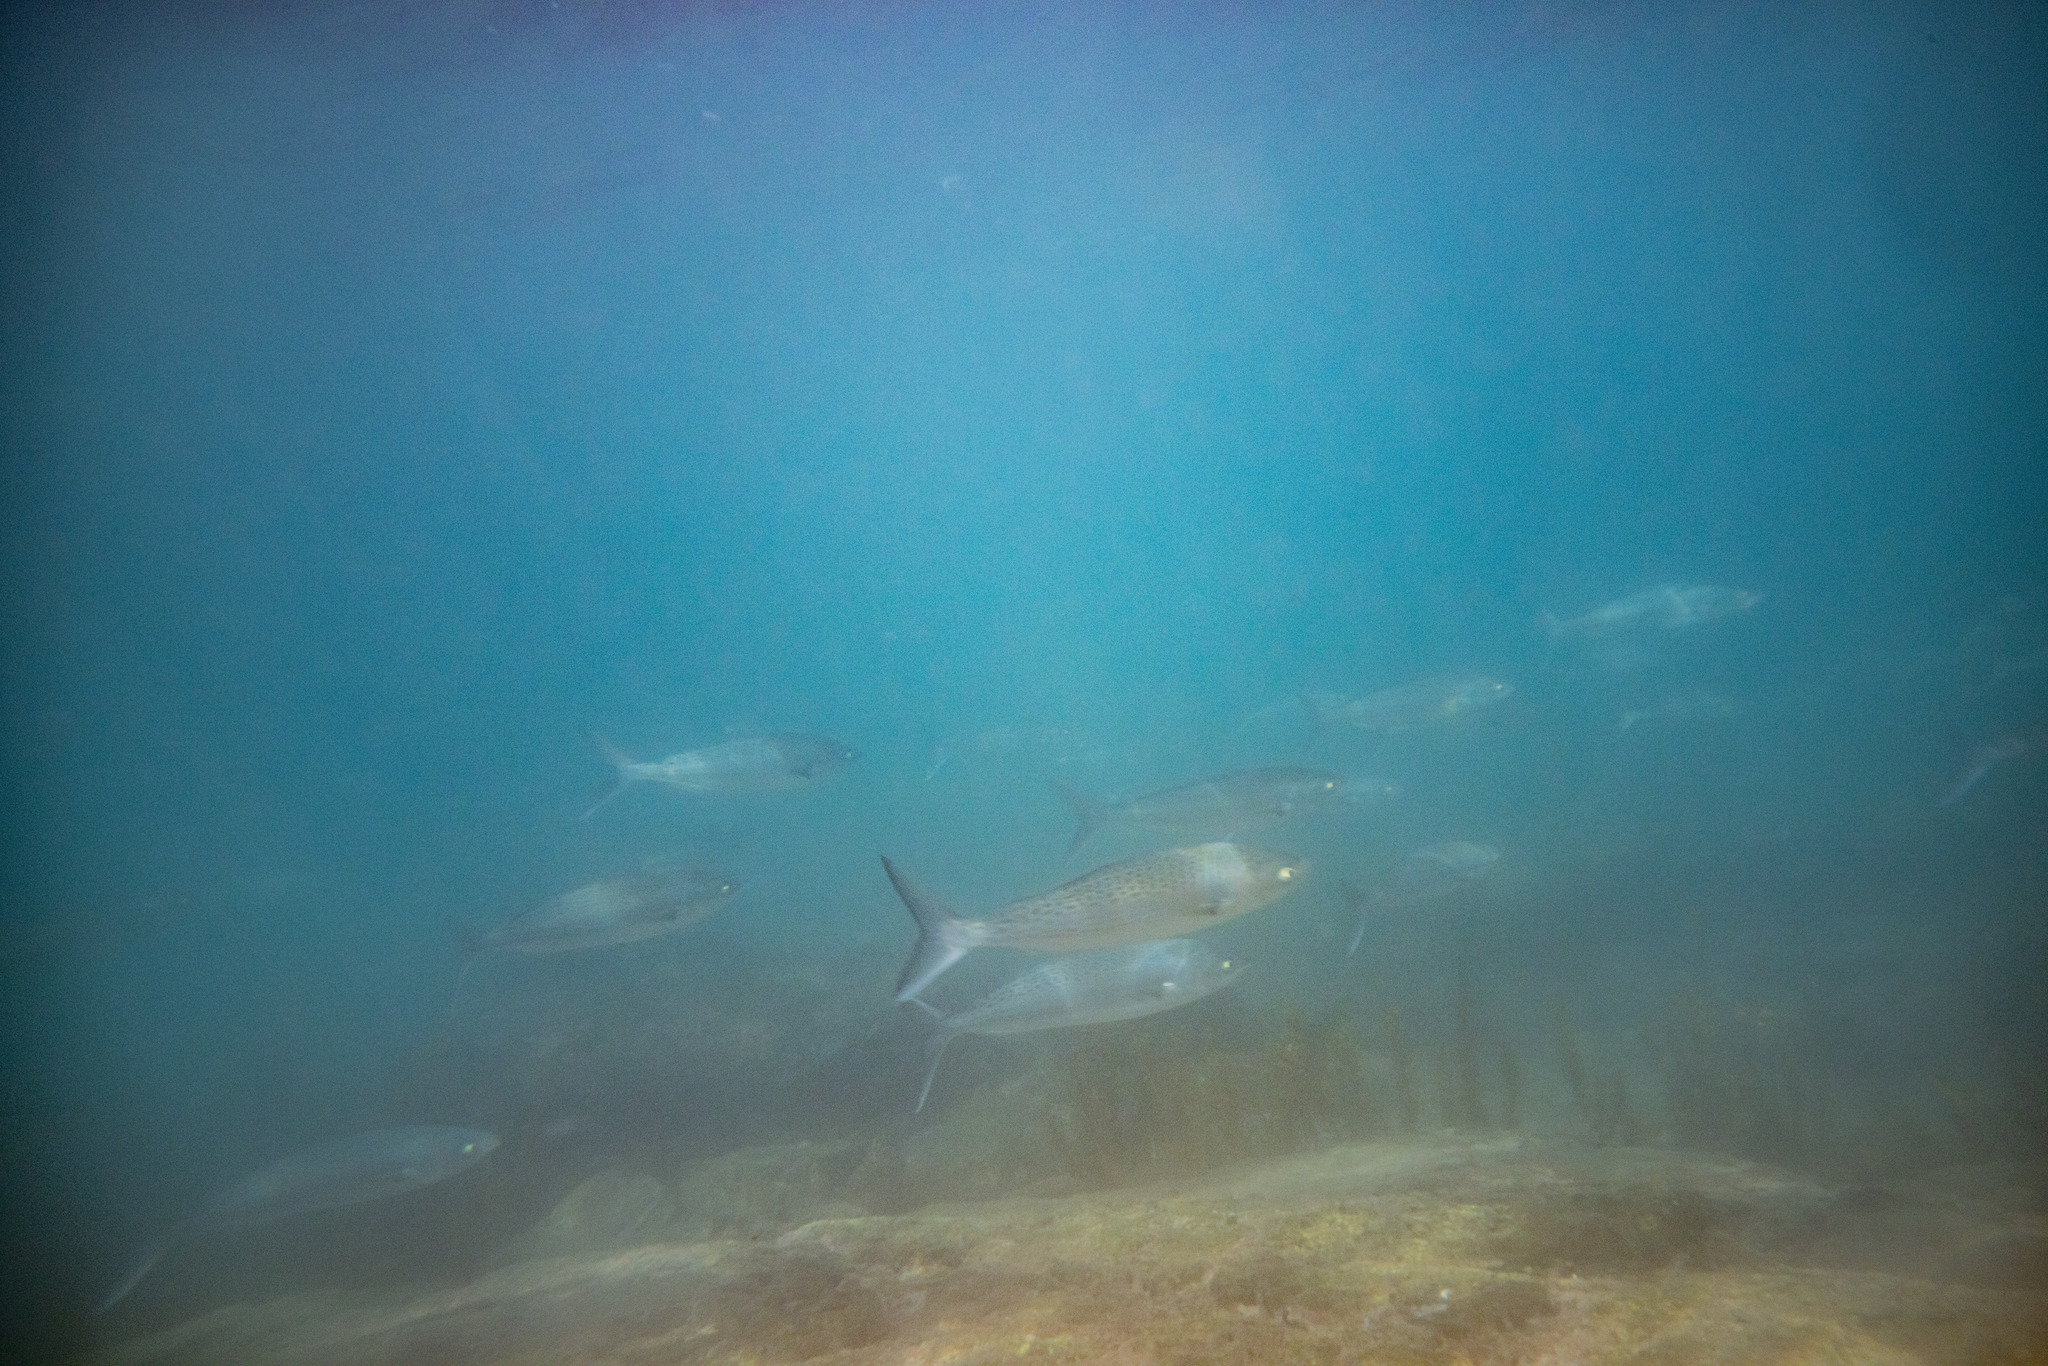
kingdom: Animalia
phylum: Chordata
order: Perciformes
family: Arripidae
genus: Arripis
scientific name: Arripis trutta
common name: Kahawai
